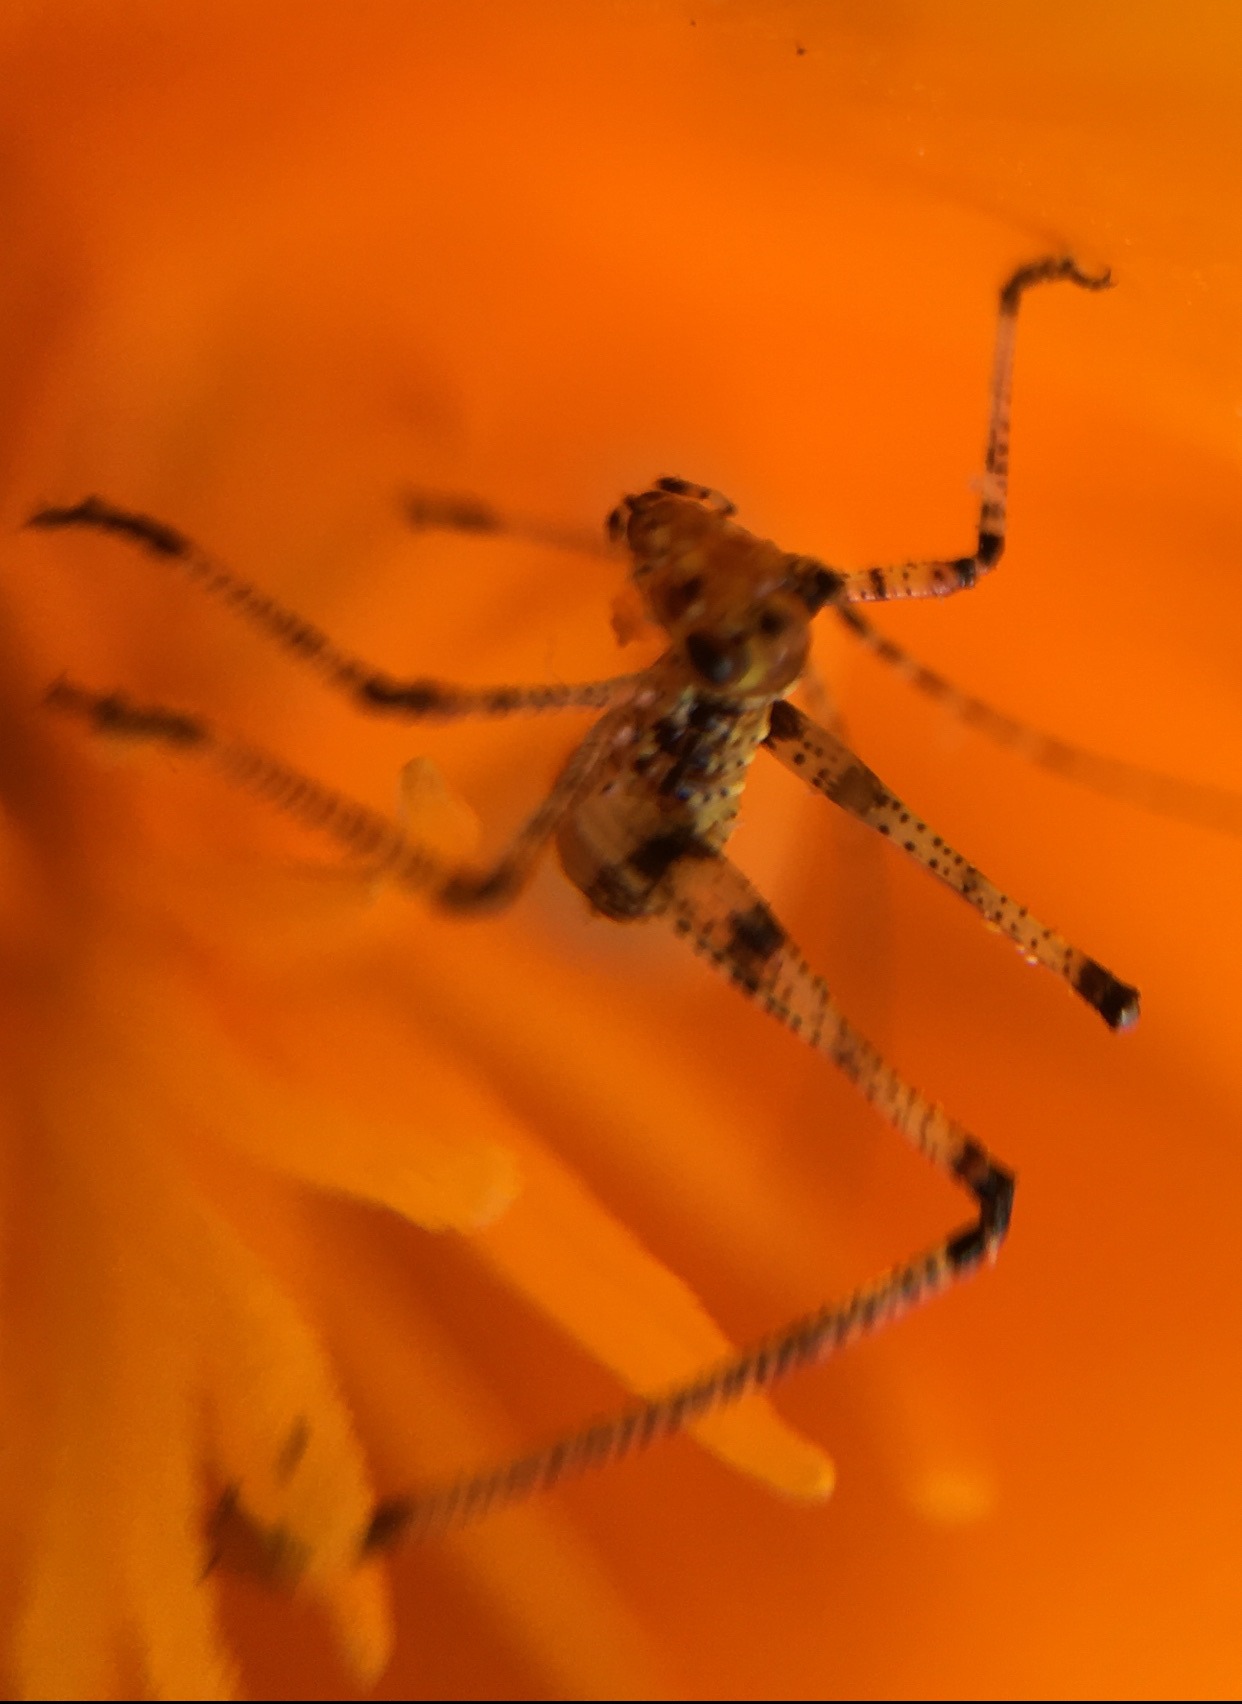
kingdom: Animalia
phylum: Arthropoda
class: Insecta
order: Orthoptera
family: Tettigoniidae
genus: Phaneroptera
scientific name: Phaneroptera nana
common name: Southern sickle bush-cricket
